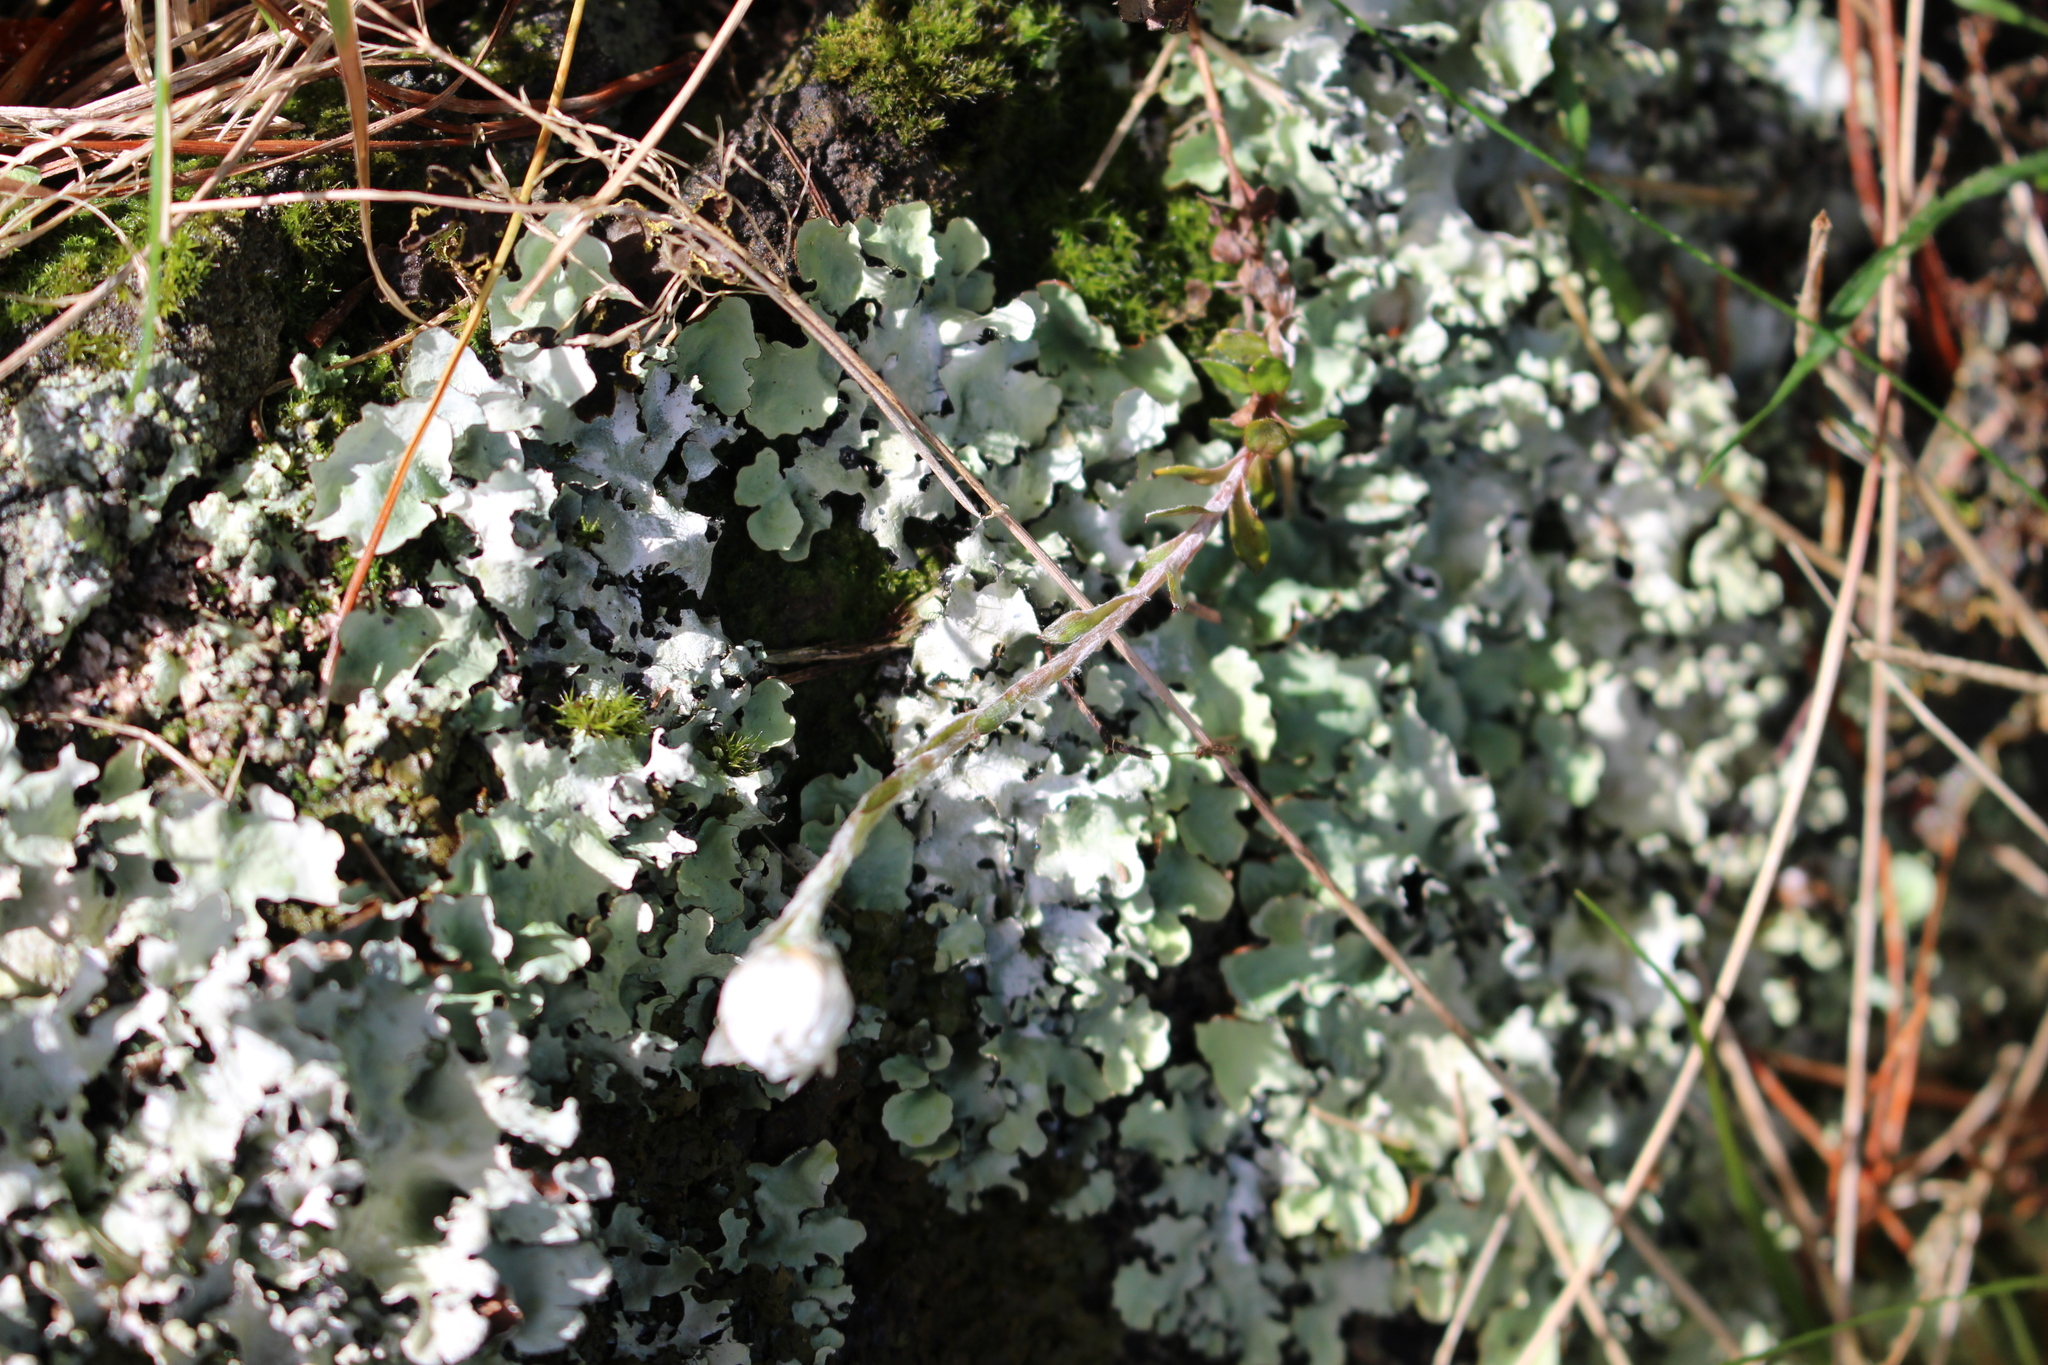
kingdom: Plantae
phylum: Tracheophyta
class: Magnoliopsida
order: Asterales
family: Asteraceae
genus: Anaphalioides
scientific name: Anaphalioides bellidioides
